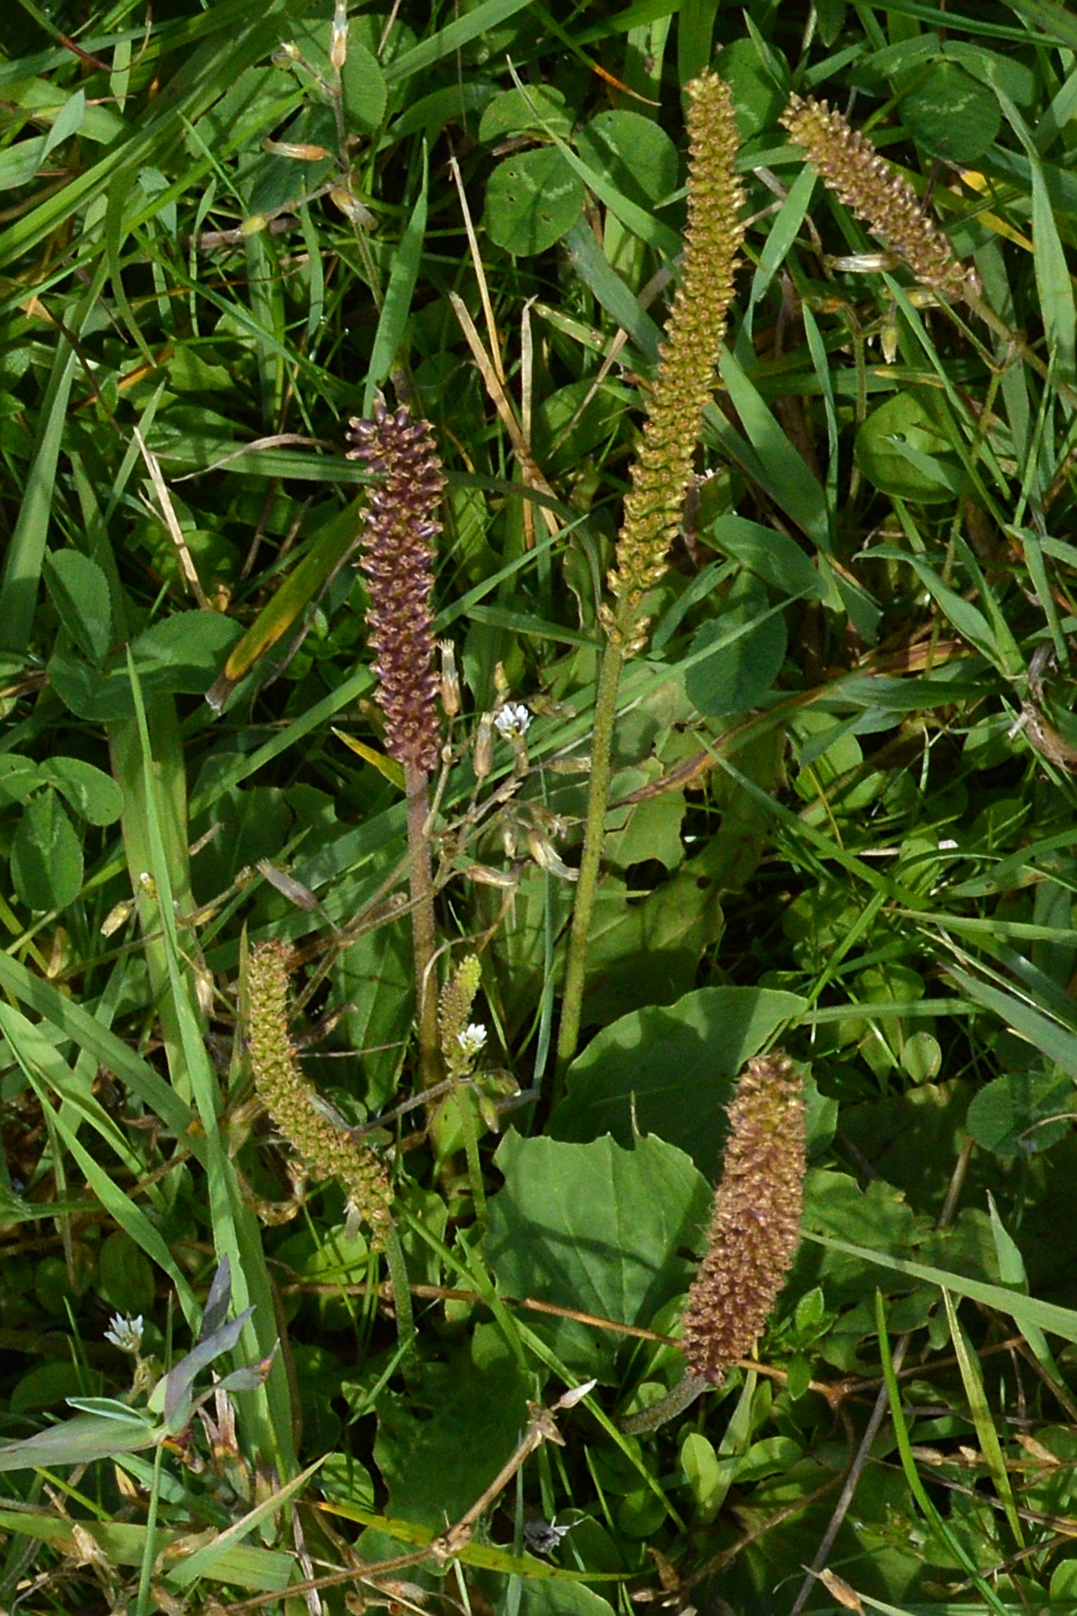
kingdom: Plantae
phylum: Tracheophyta
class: Magnoliopsida
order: Lamiales
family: Plantaginaceae
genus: Plantago
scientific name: Plantago major
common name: Common plantain
